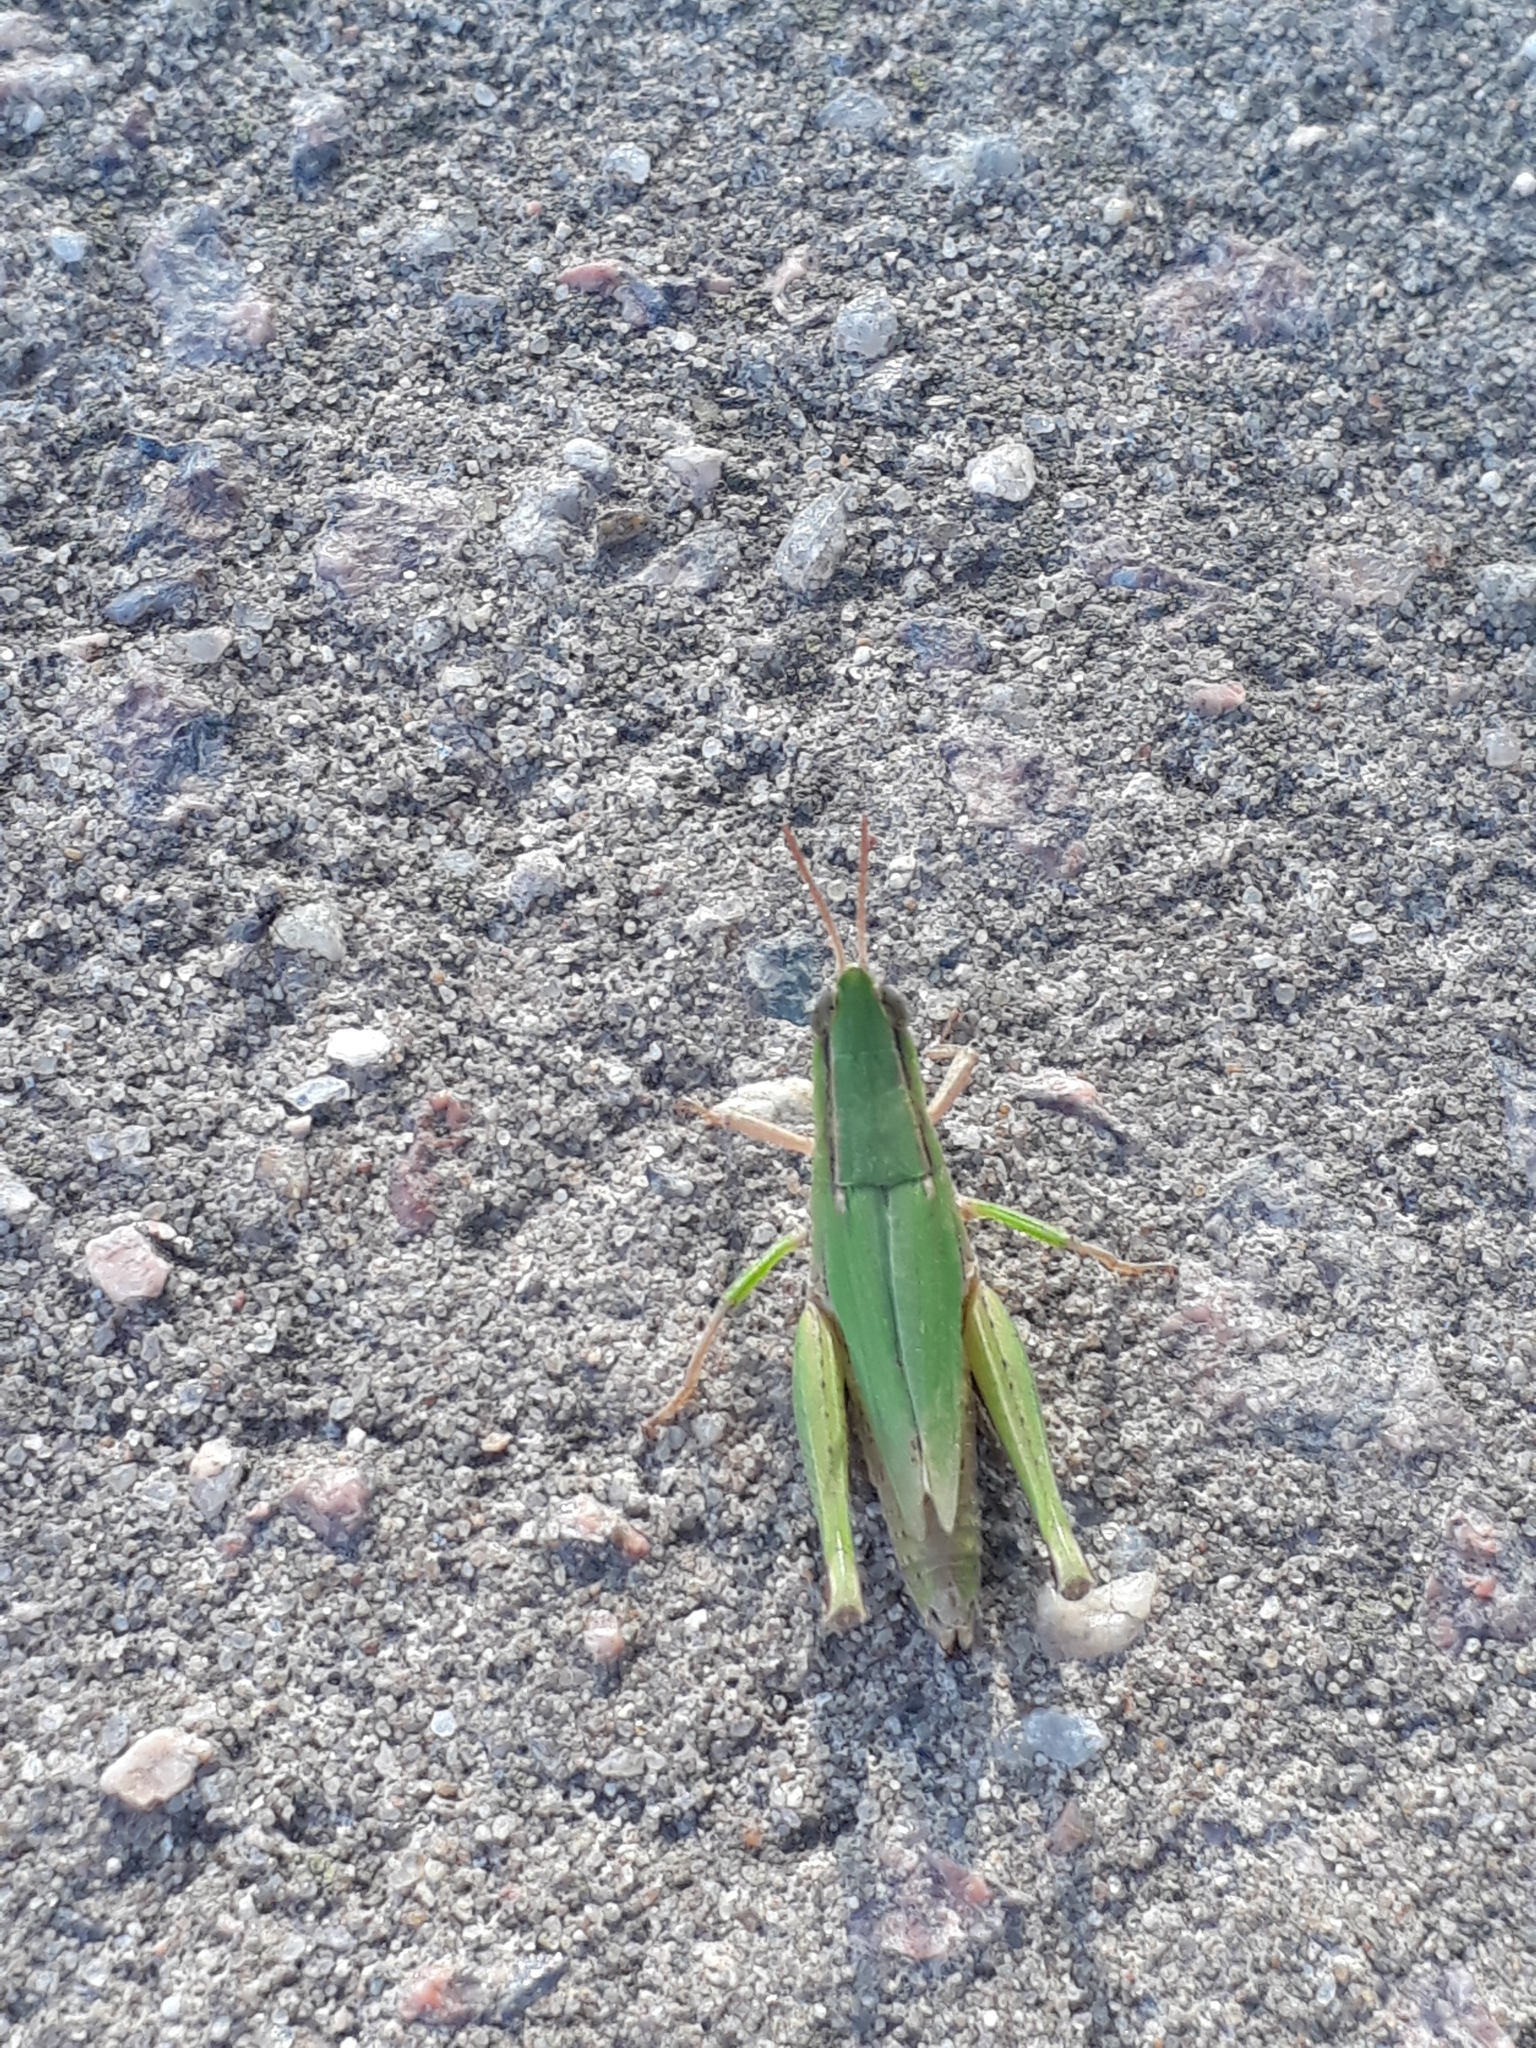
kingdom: Animalia
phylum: Arthropoda
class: Insecta
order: Orthoptera
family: Acrididae
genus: Dichromorpha
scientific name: Dichromorpha australis
